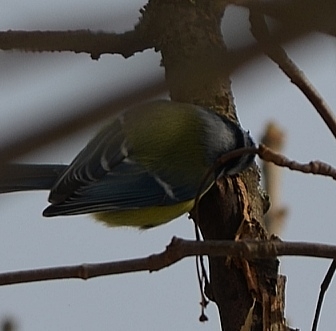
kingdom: Animalia
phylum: Chordata
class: Aves
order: Passeriformes
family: Paridae
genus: Cyanistes
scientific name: Cyanistes caeruleus
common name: Eurasian blue tit
